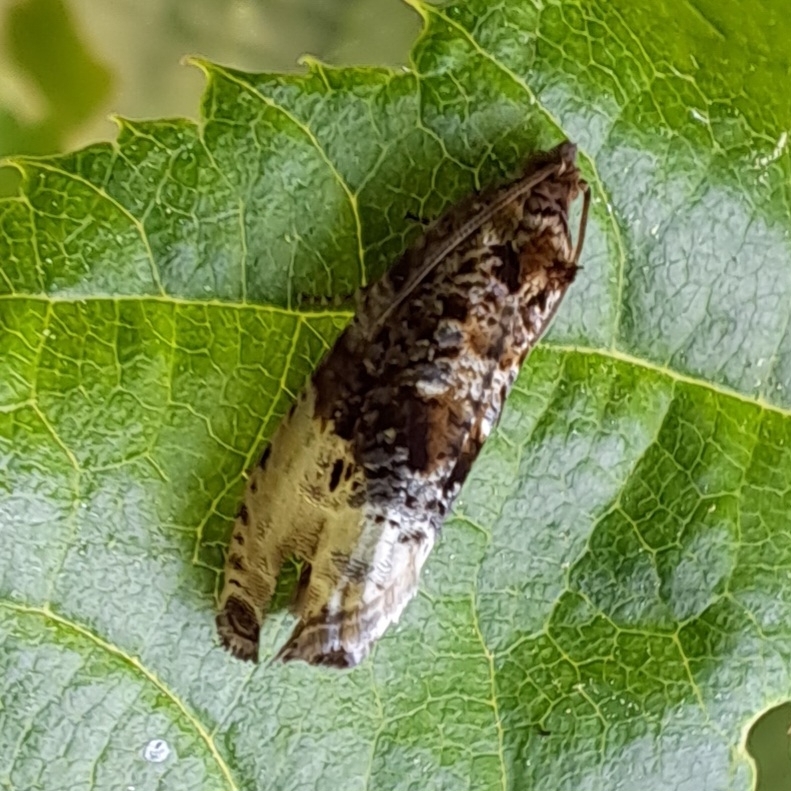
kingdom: Animalia
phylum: Arthropoda
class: Insecta
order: Lepidoptera
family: Tortricidae
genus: Hedya
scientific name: Hedya nubiferana
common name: Marbled orchard tortrix
